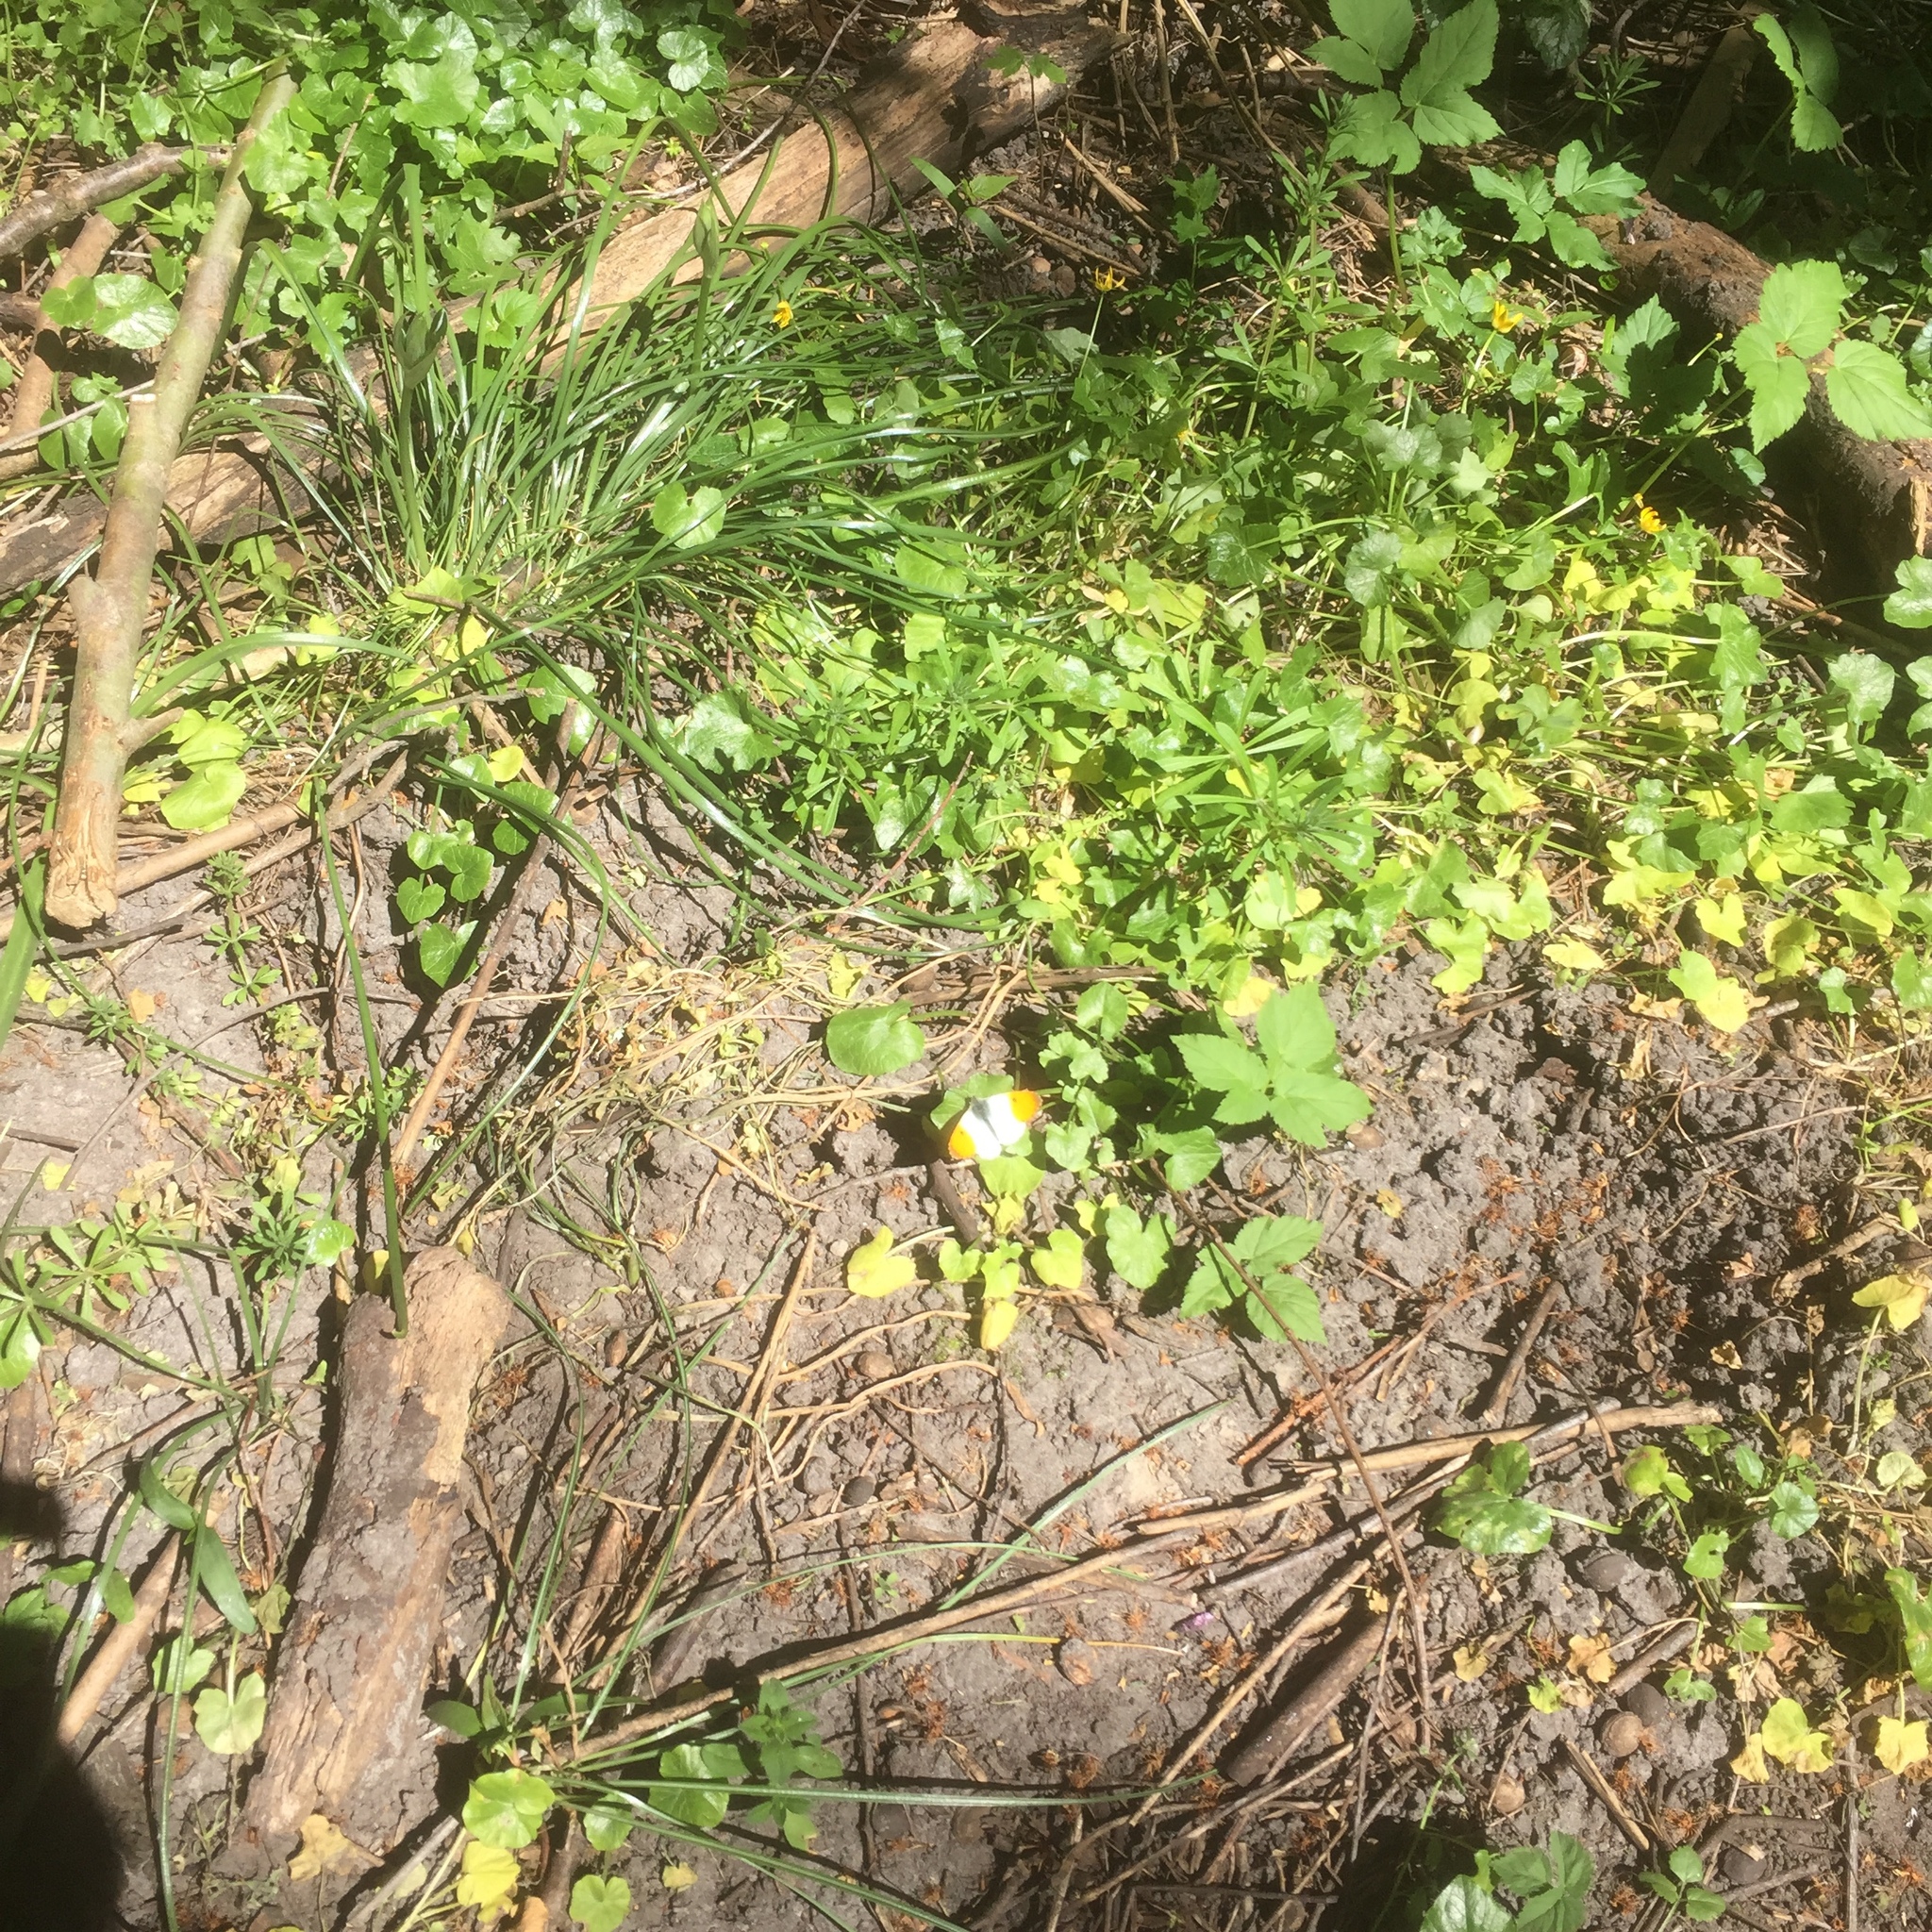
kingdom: Animalia
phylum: Arthropoda
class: Insecta
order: Lepidoptera
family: Pieridae
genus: Anthocharis
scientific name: Anthocharis cardamines
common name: Orange-tip
